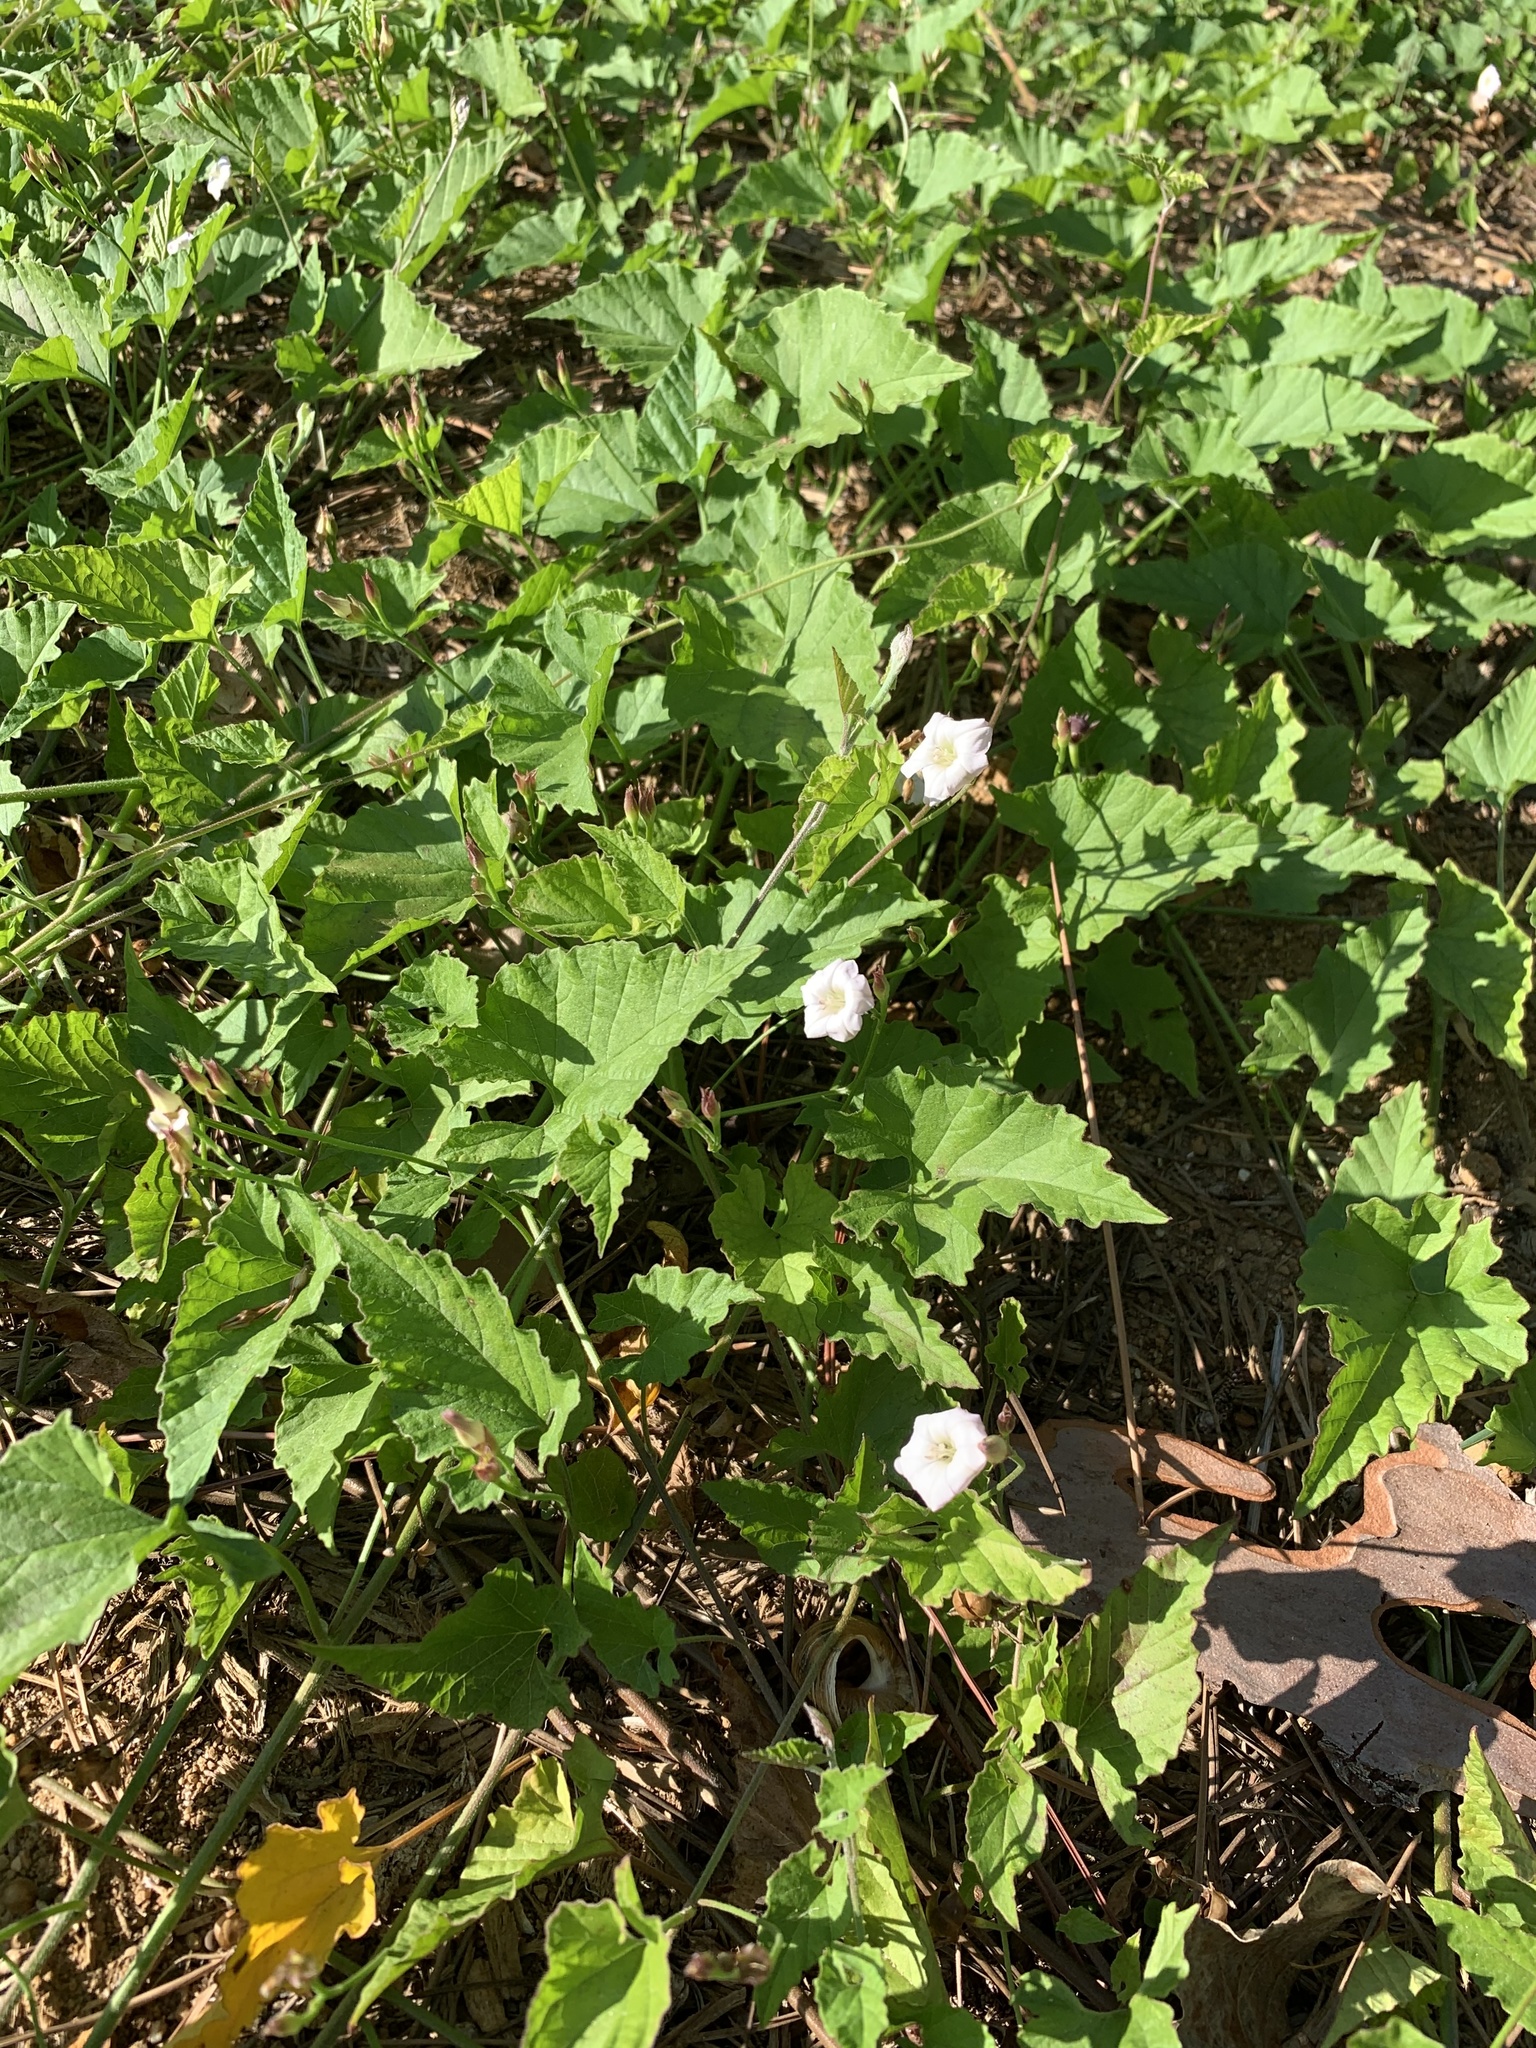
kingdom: Plantae
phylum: Tracheophyta
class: Magnoliopsida
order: Solanales
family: Convolvulaceae
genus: Convolvulus
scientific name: Convolvulus farinosus
